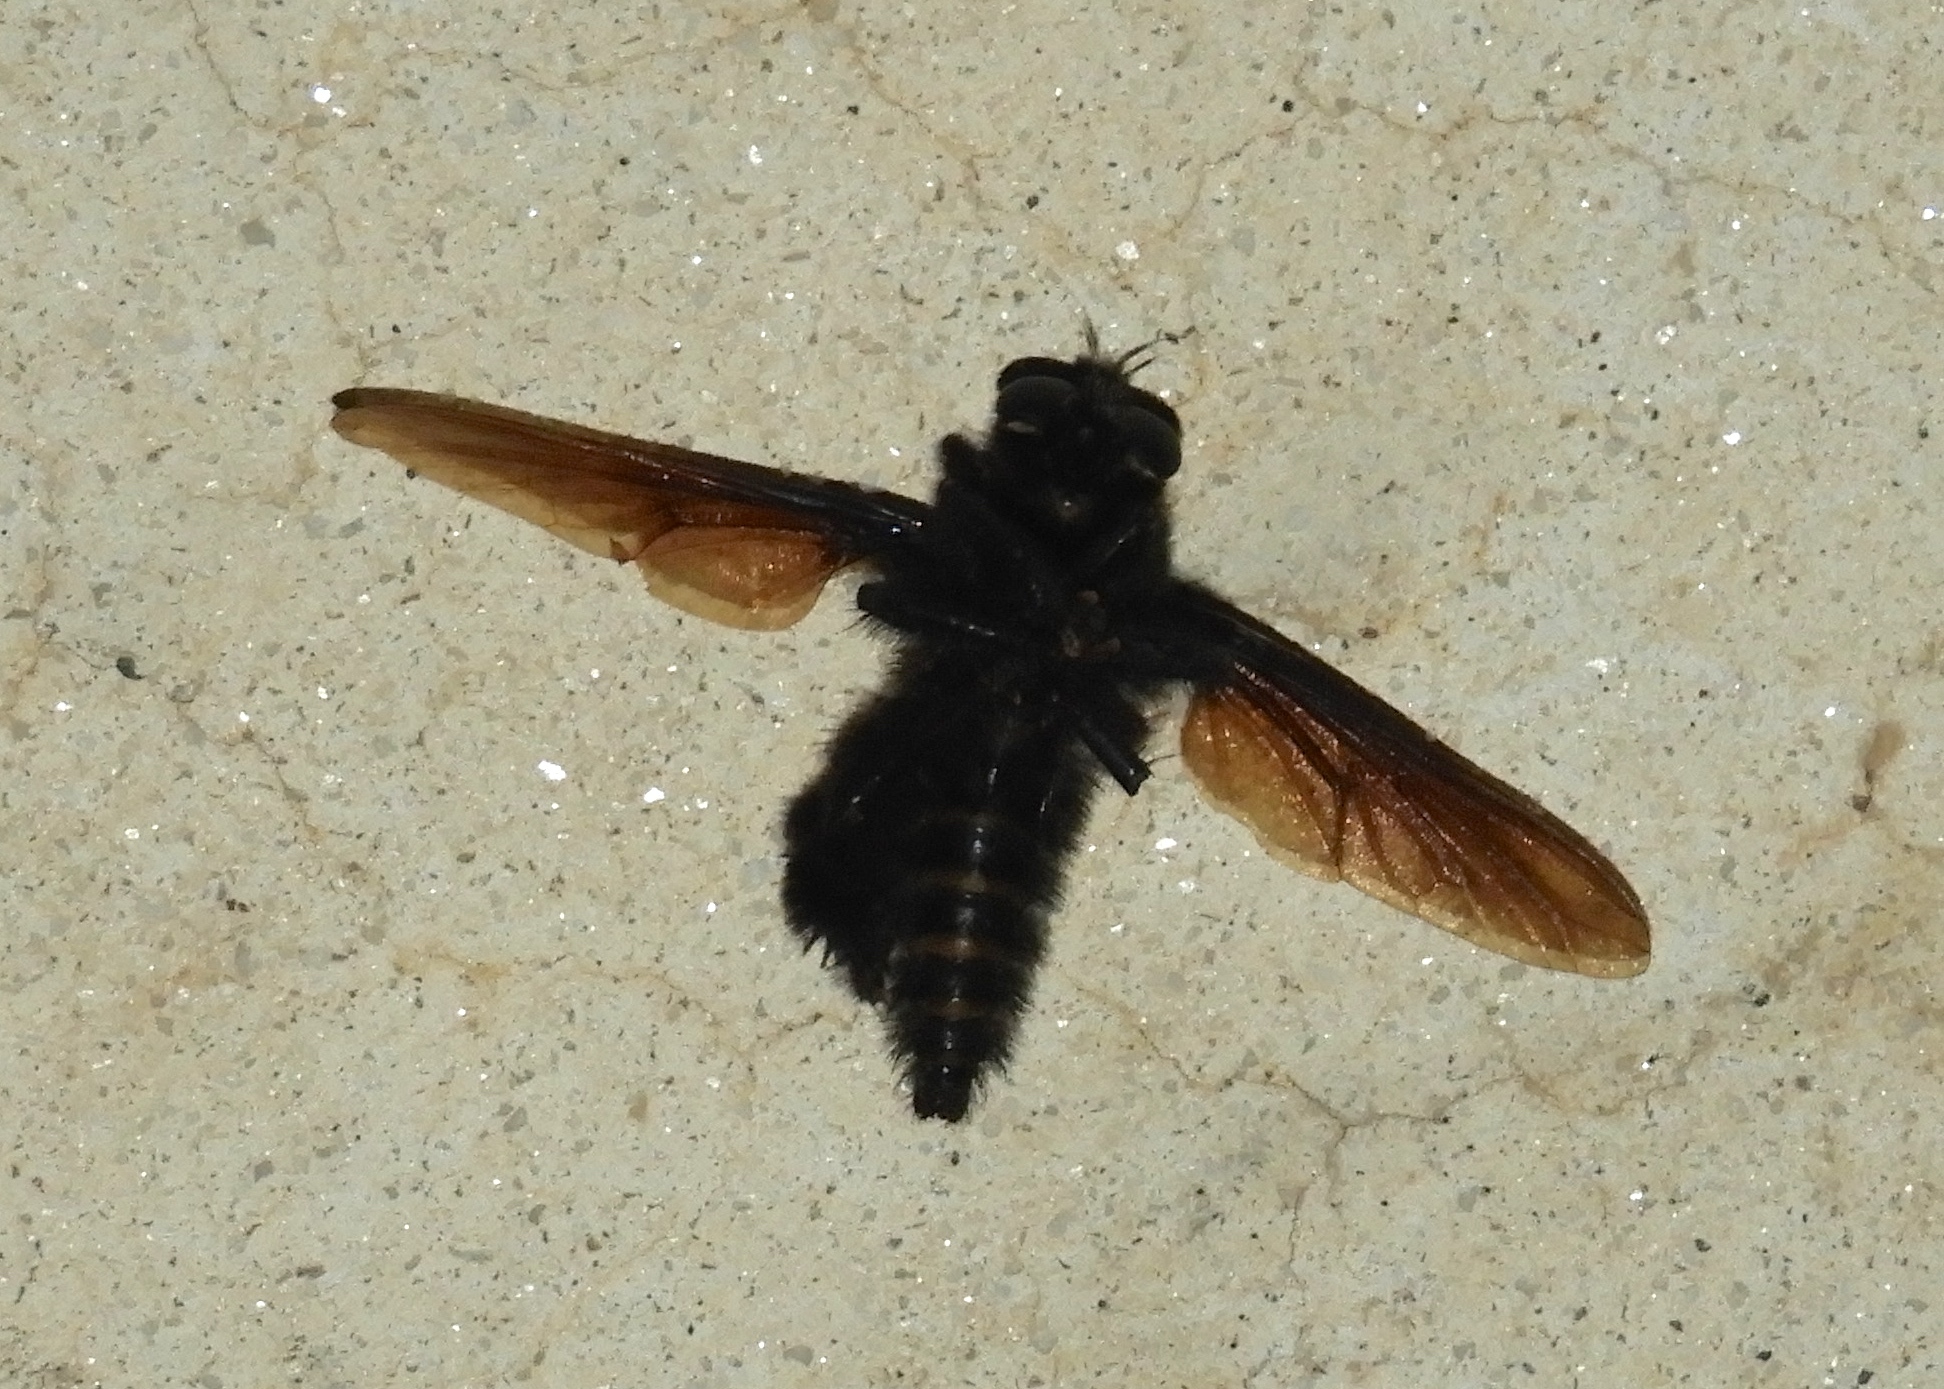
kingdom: Animalia
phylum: Arthropoda
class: Insecta
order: Diptera
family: Asilidae
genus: Mallophora
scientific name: Mallophora
